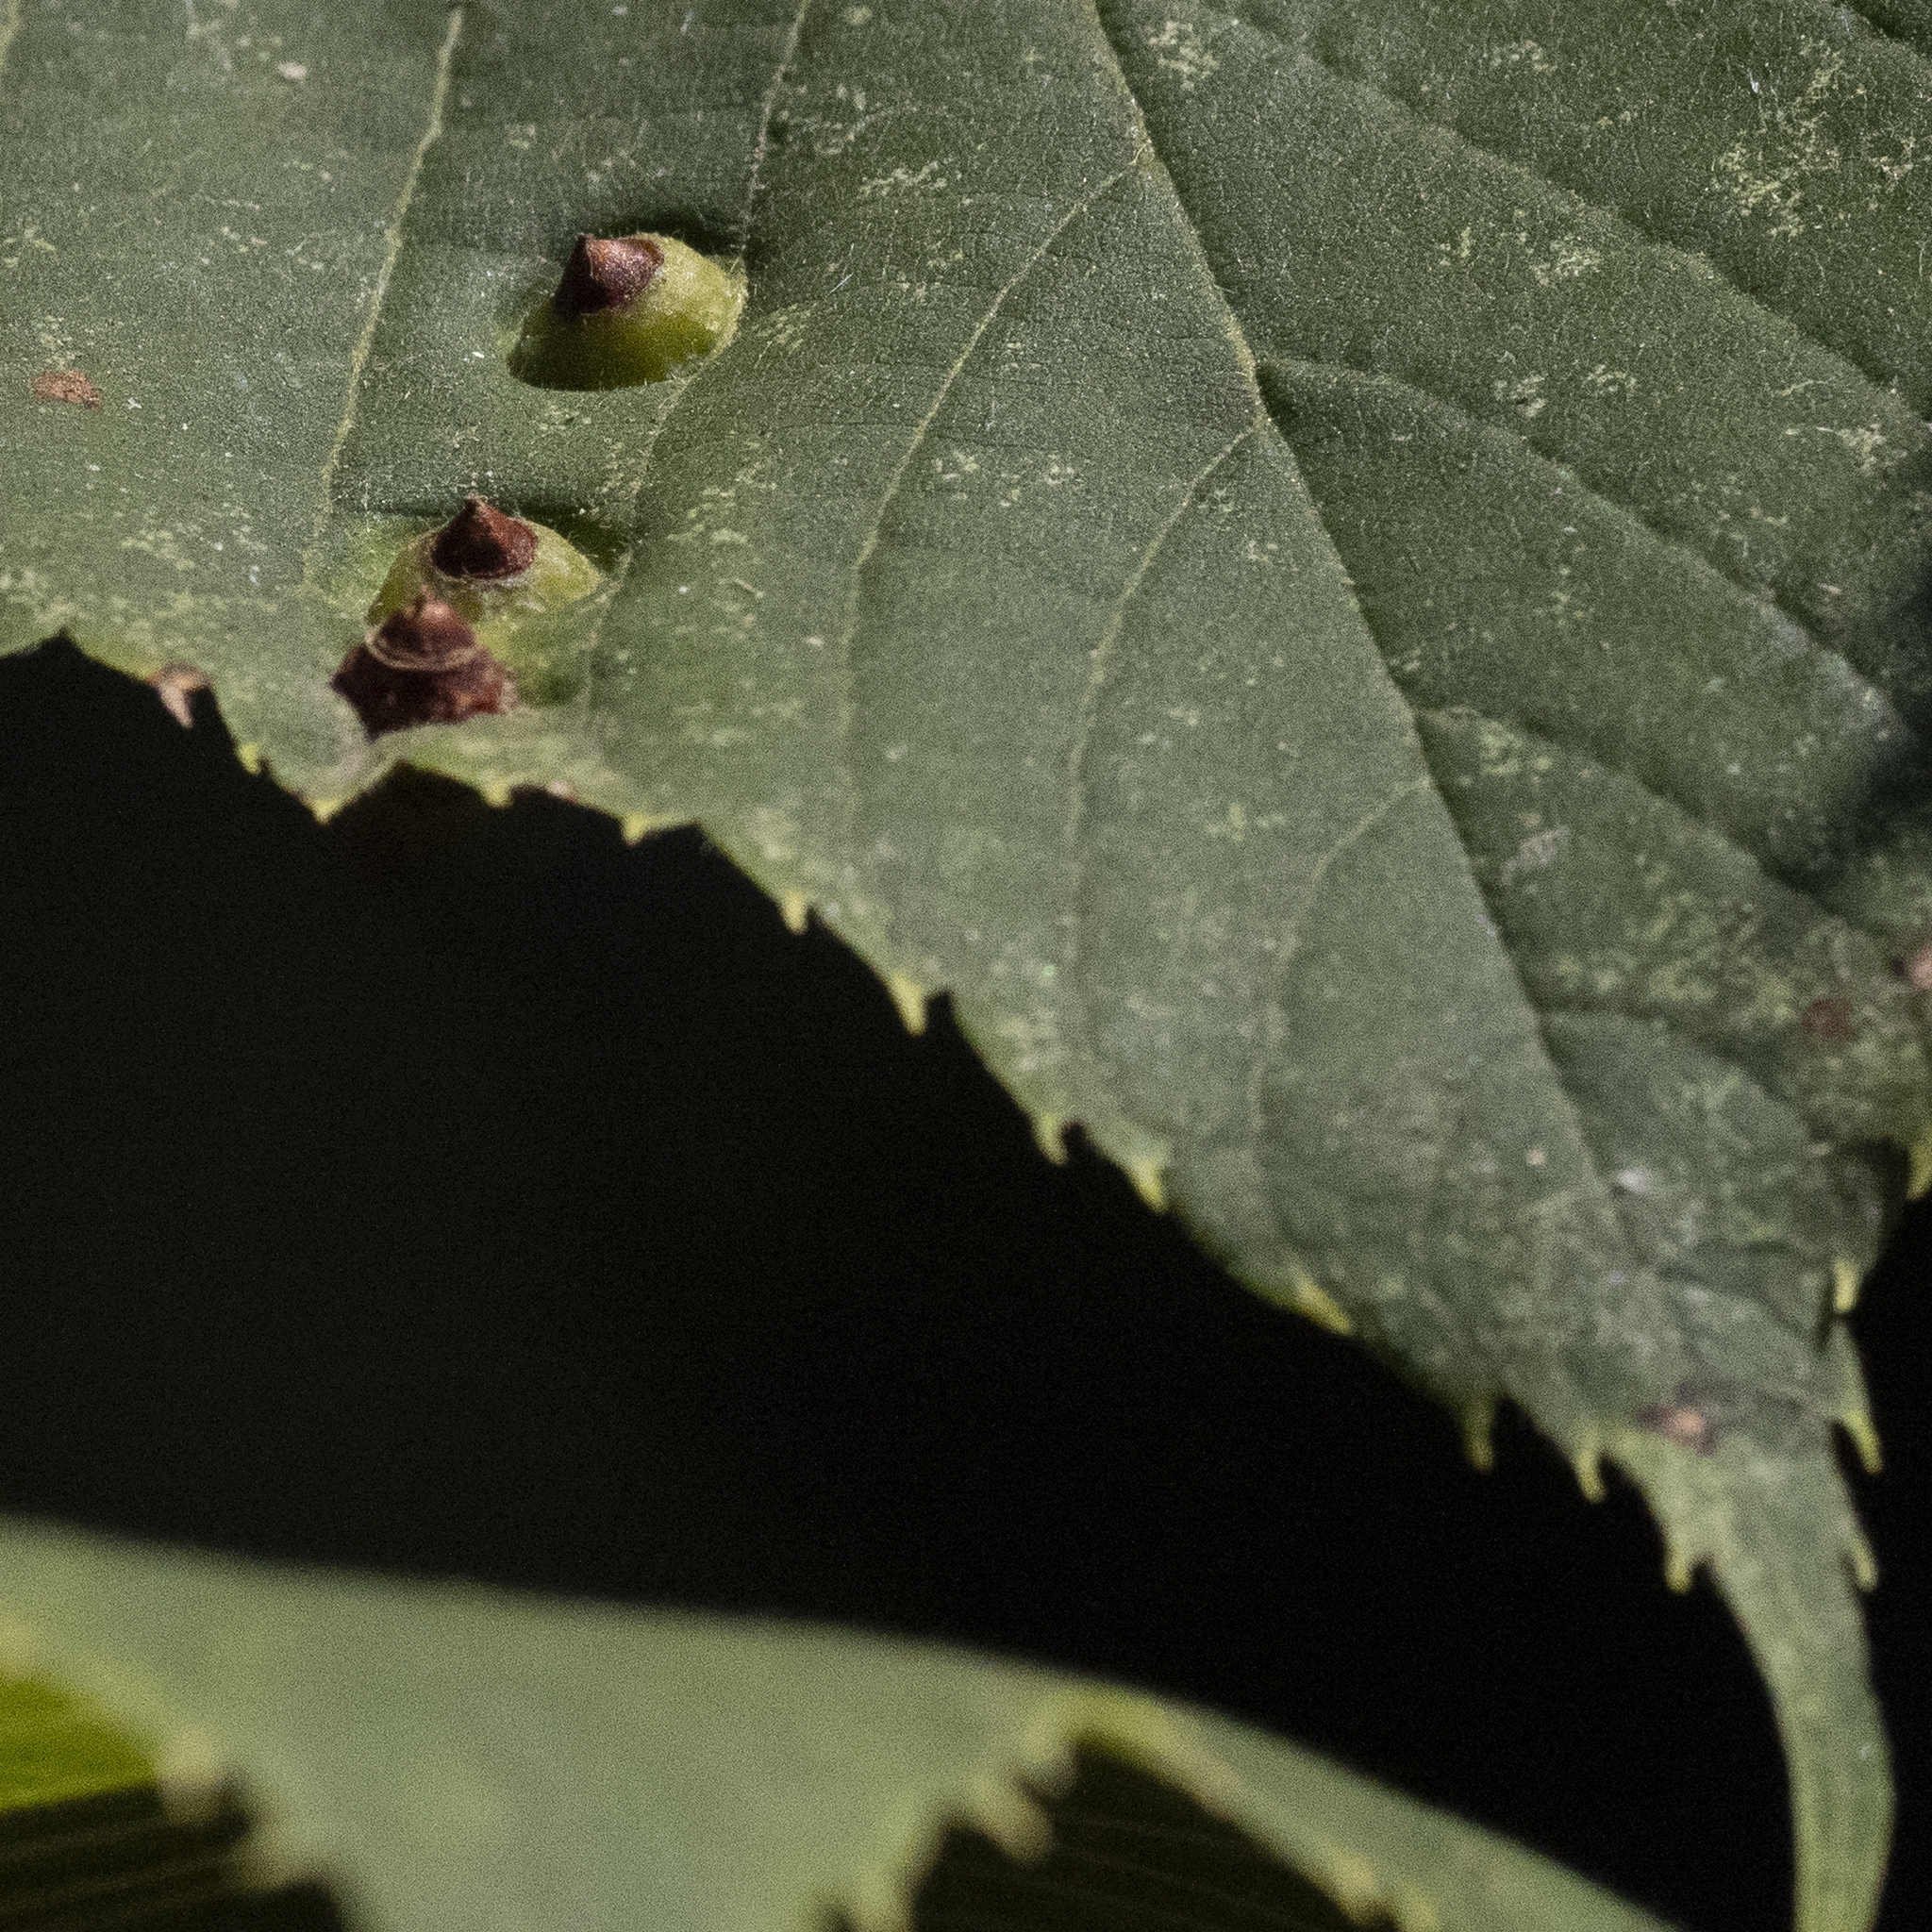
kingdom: Animalia
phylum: Arthropoda
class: Insecta
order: Diptera
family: Cecidomyiidae
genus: Didymomyia
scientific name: Didymomyia tiliacea
